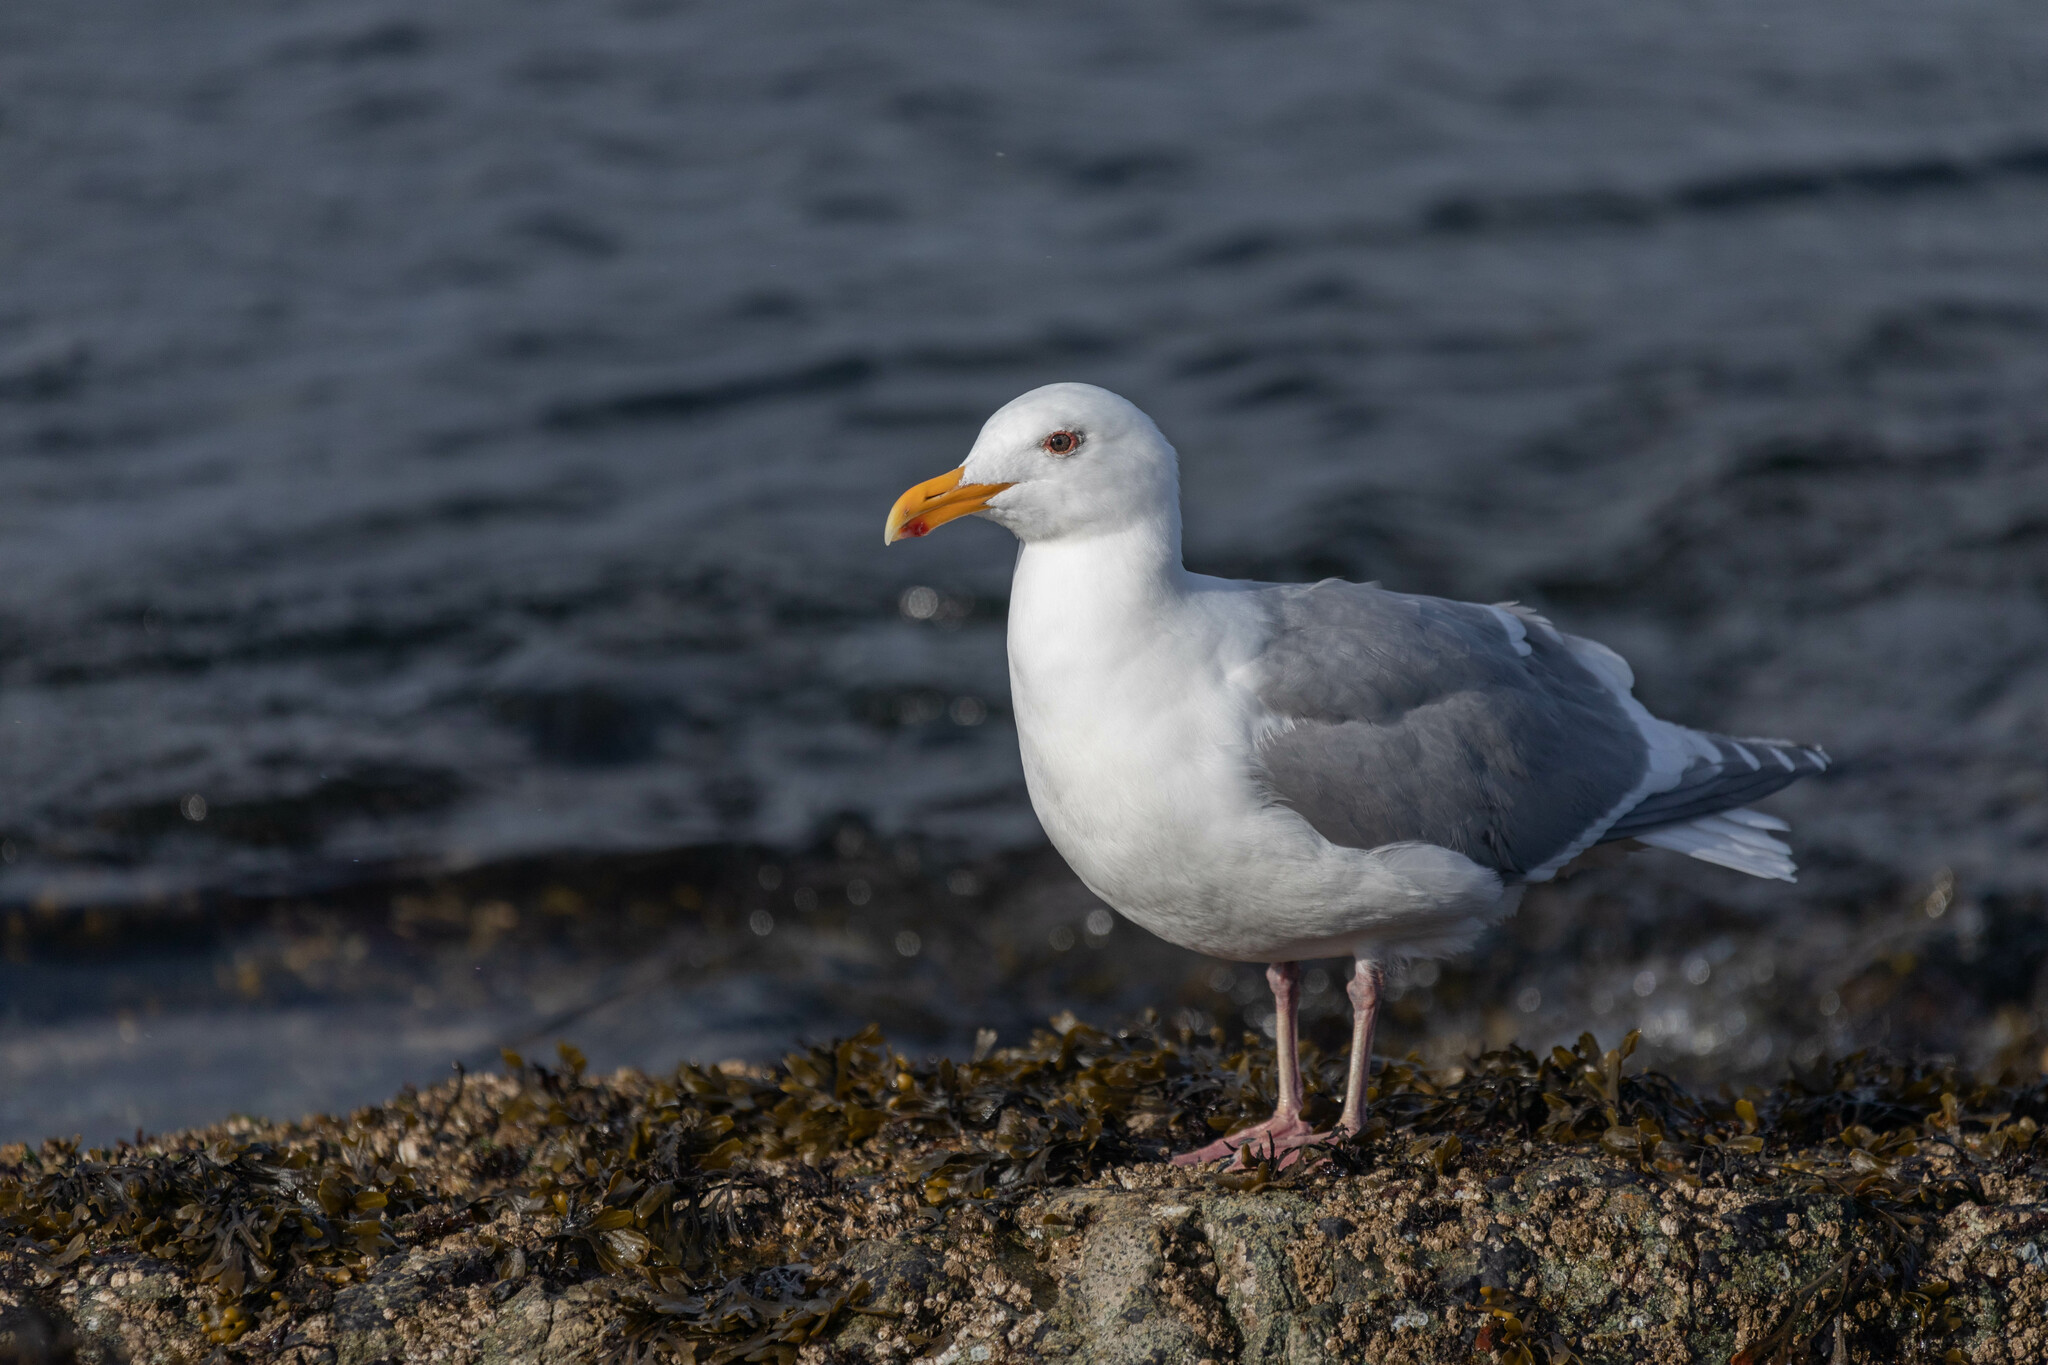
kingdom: Animalia
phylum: Chordata
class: Aves
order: Charadriiformes
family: Laridae
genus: Larus
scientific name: Larus
